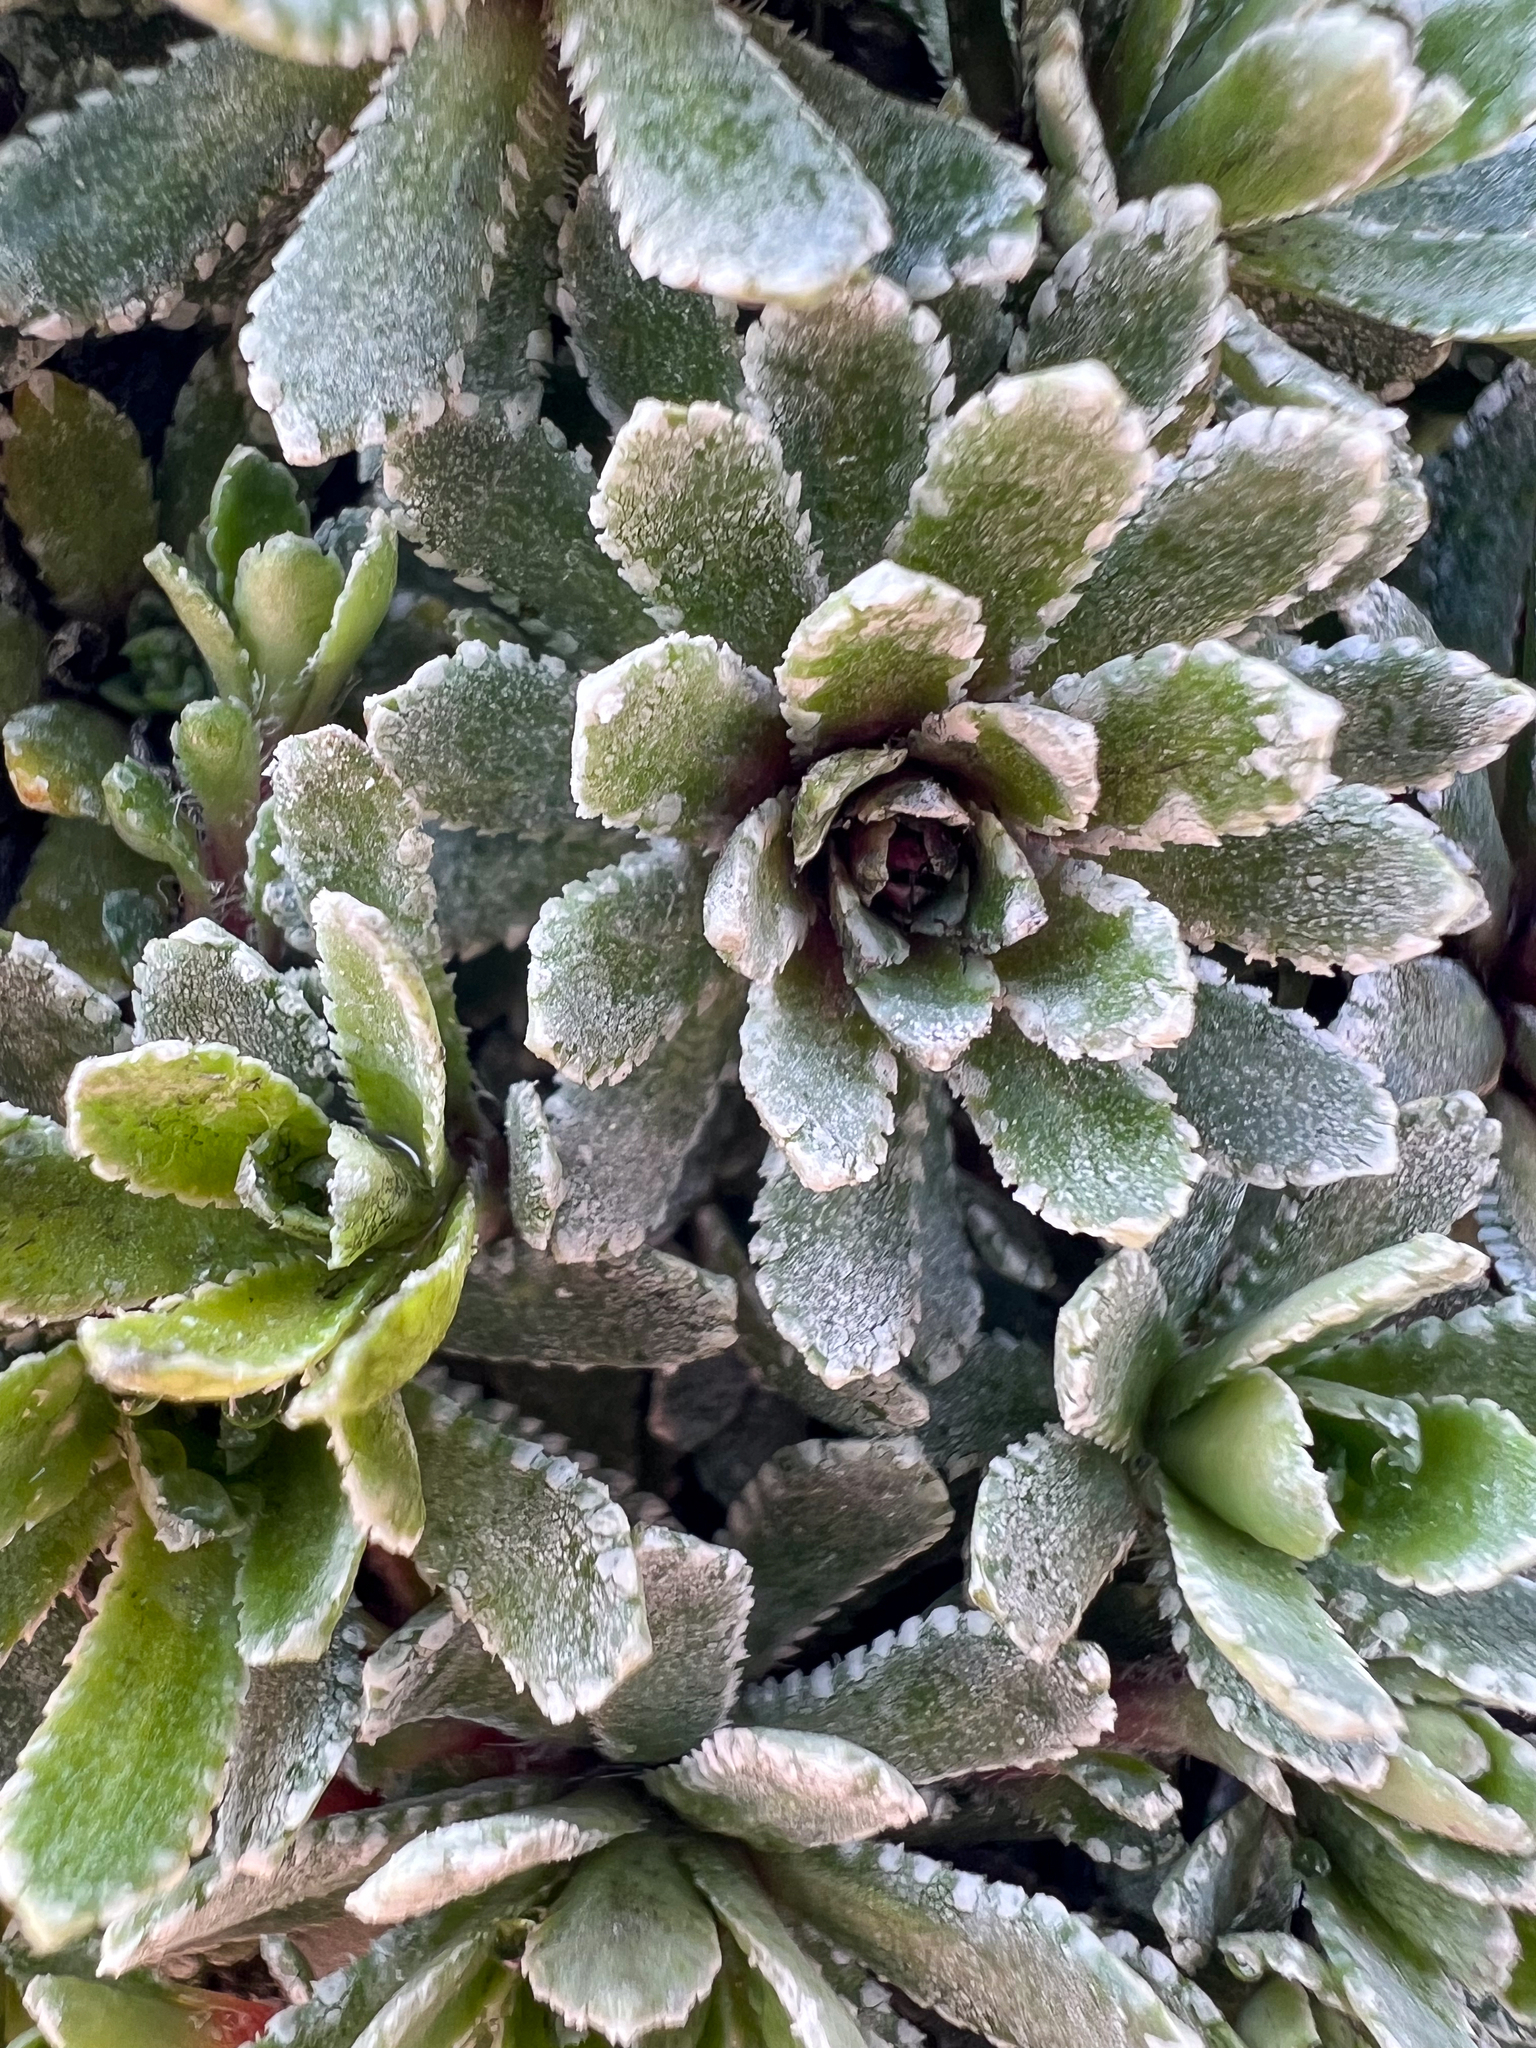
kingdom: Plantae
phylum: Tracheophyta
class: Magnoliopsida
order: Saxifragales
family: Saxifragaceae
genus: Saxifraga
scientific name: Saxifraga paniculata
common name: Livelong saxifrage
